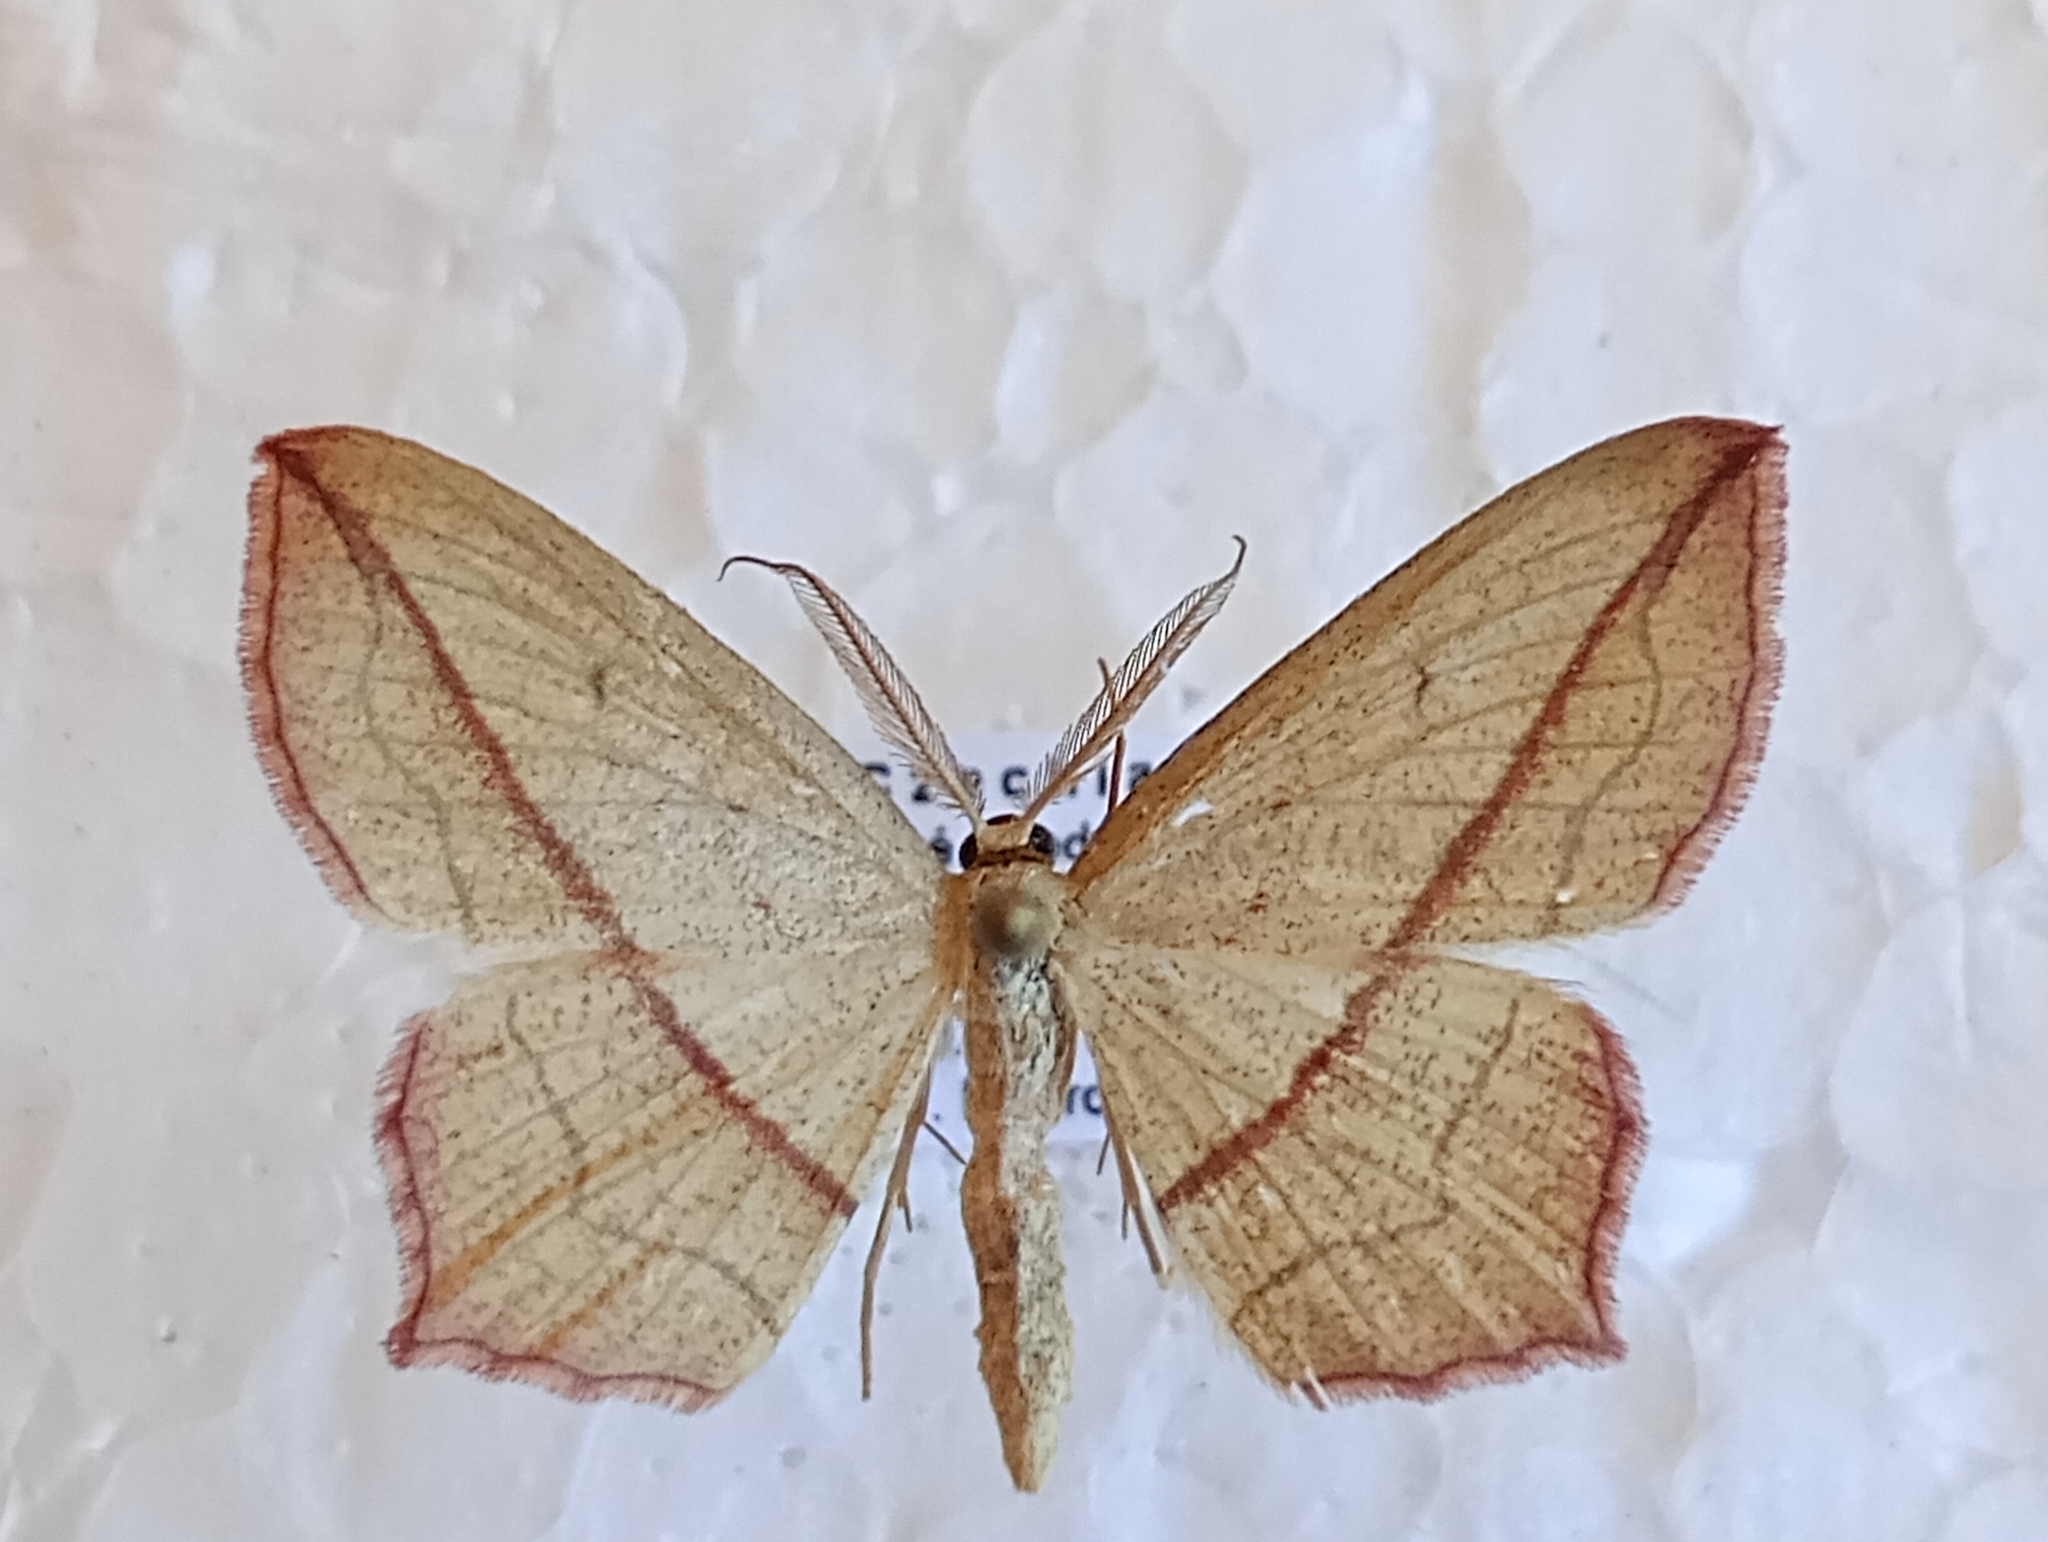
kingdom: Animalia
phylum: Arthropoda
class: Insecta
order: Lepidoptera
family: Geometridae
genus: Timandra
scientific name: Timandra comae
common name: Blood-vein
